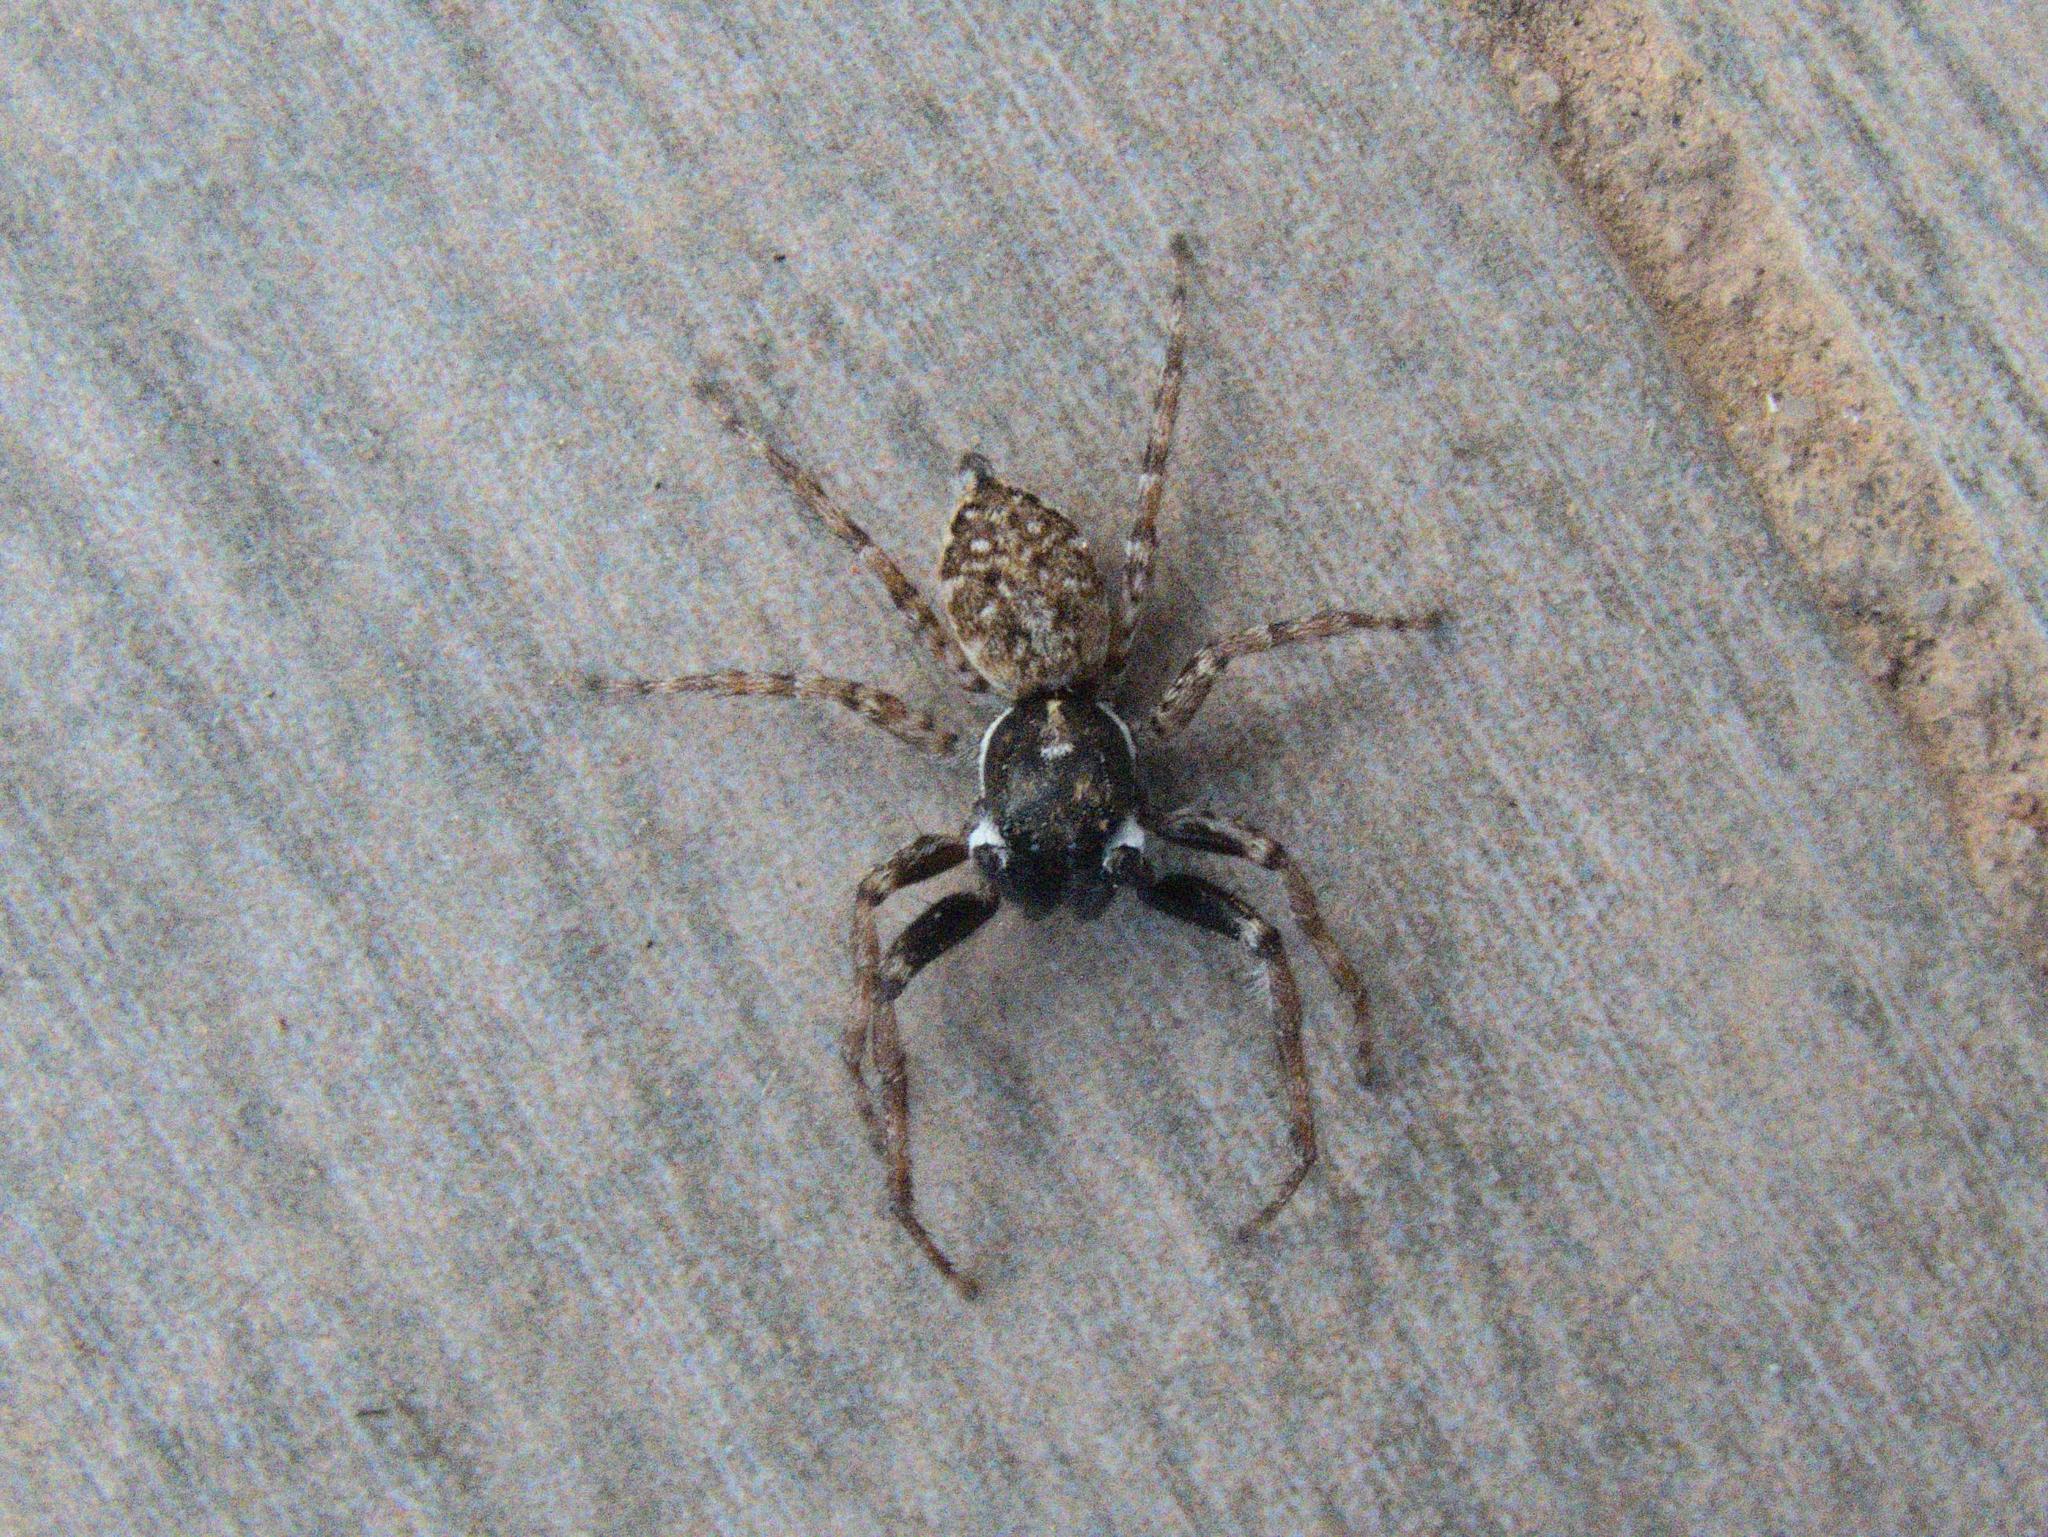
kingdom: Animalia
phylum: Arthropoda
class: Arachnida
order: Araneae
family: Salticidae
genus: Menemerus
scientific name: Menemerus semilimbatus
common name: Jumping spider
